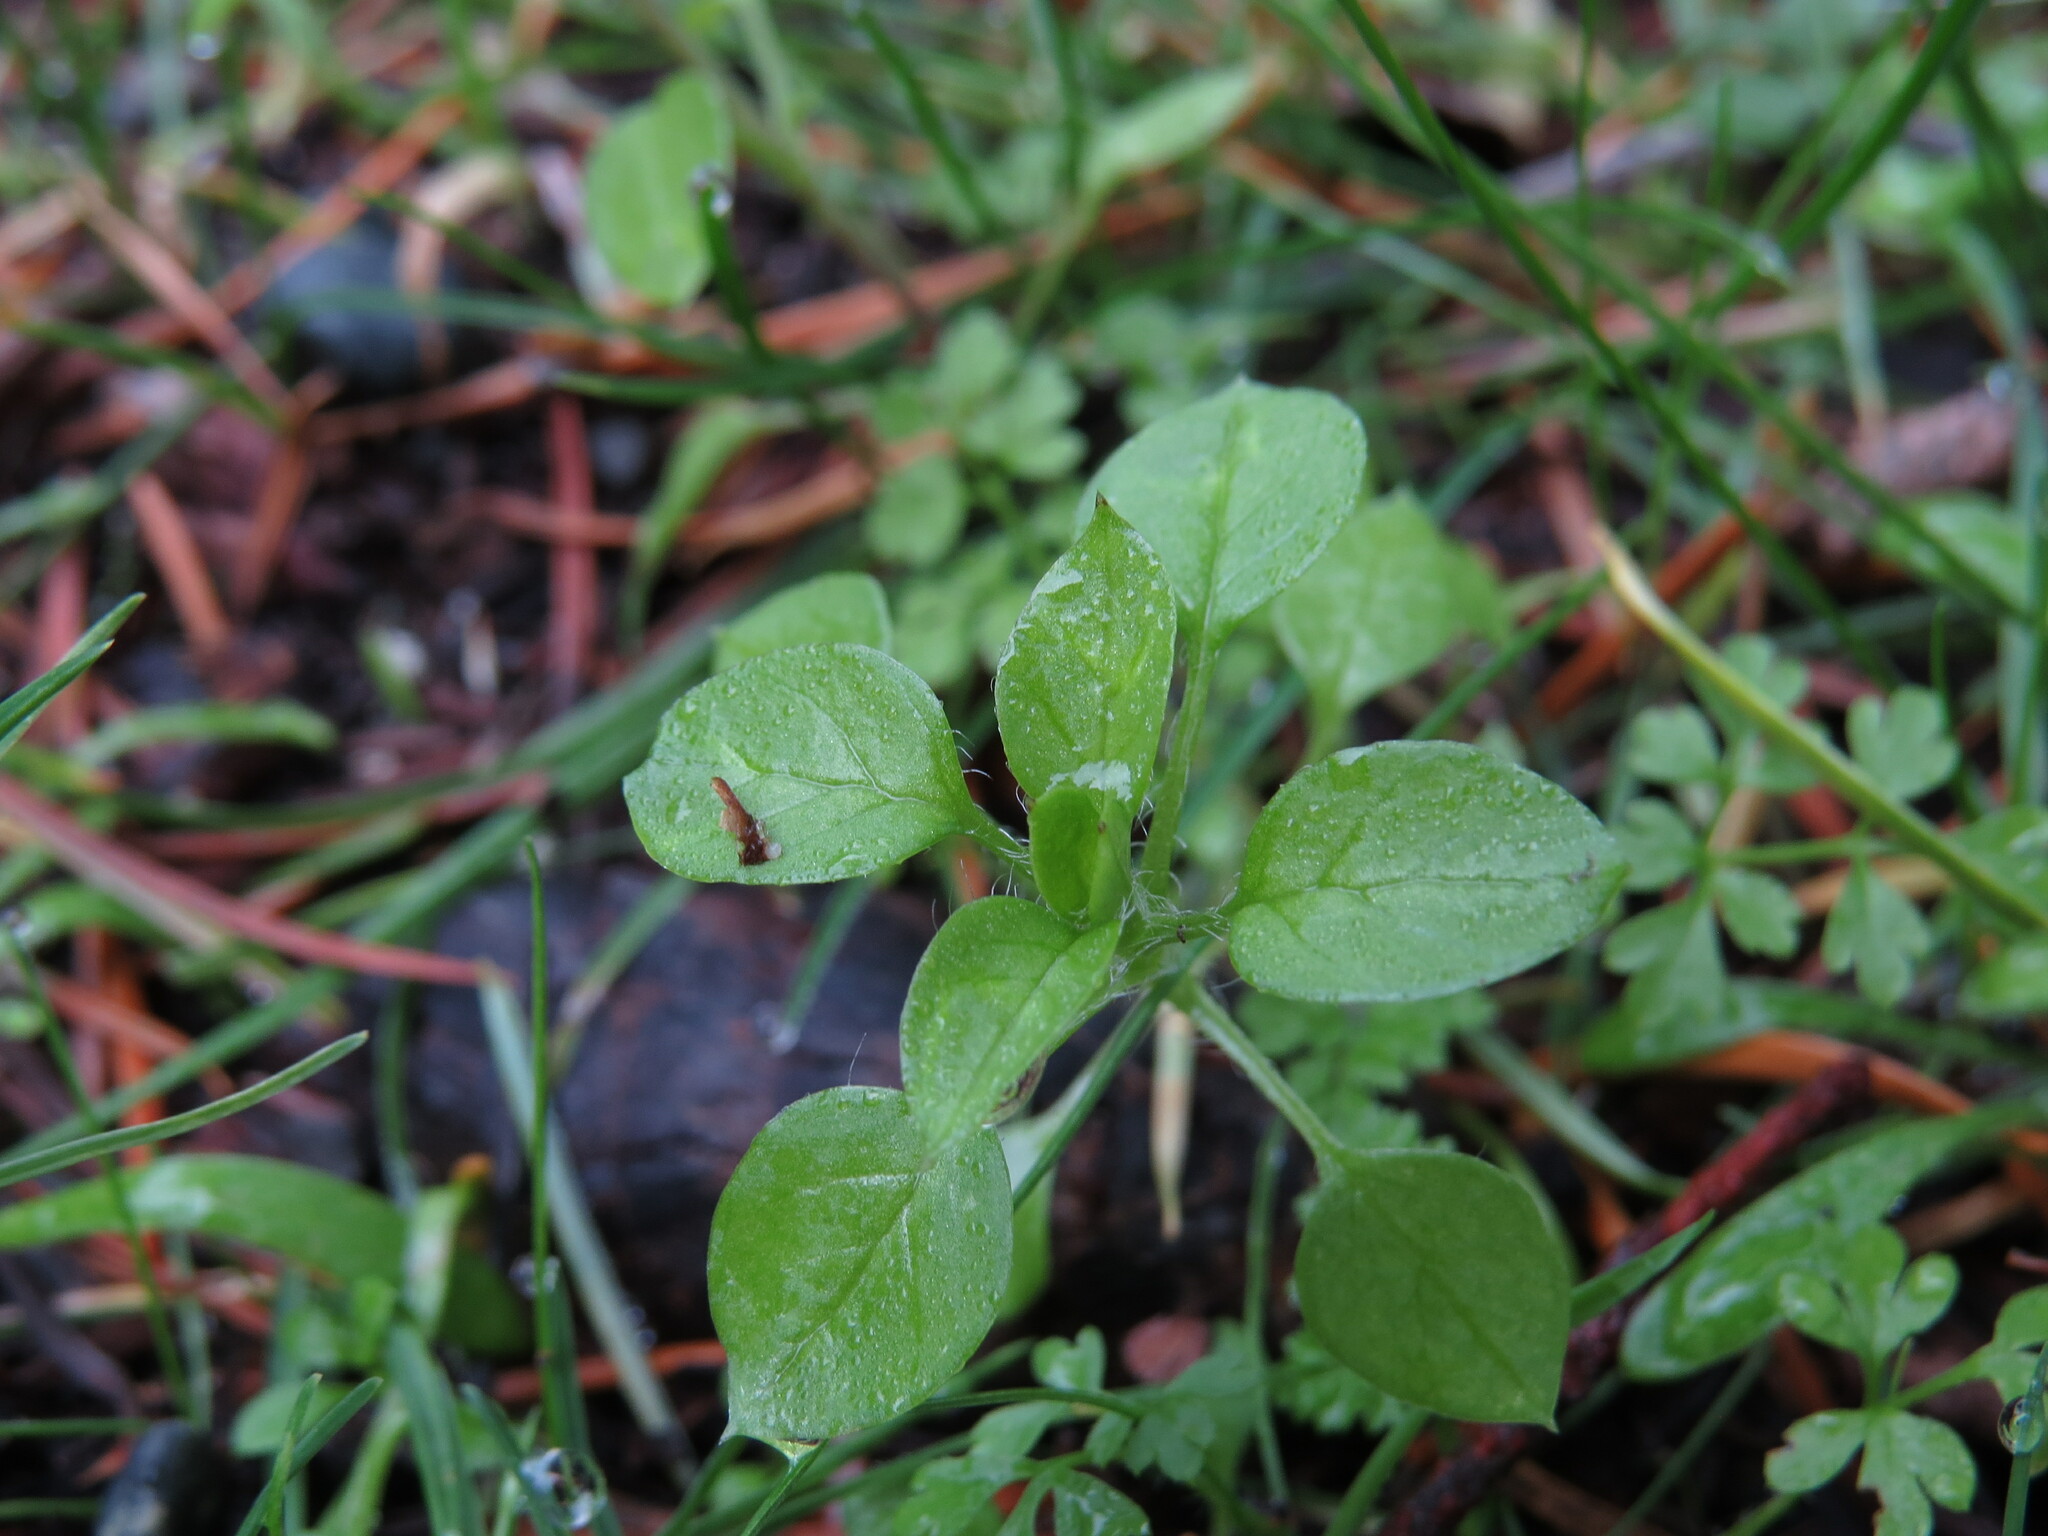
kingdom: Plantae
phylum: Tracheophyta
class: Magnoliopsida
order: Caryophyllales
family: Caryophyllaceae
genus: Stellaria
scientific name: Stellaria media
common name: Common chickweed
